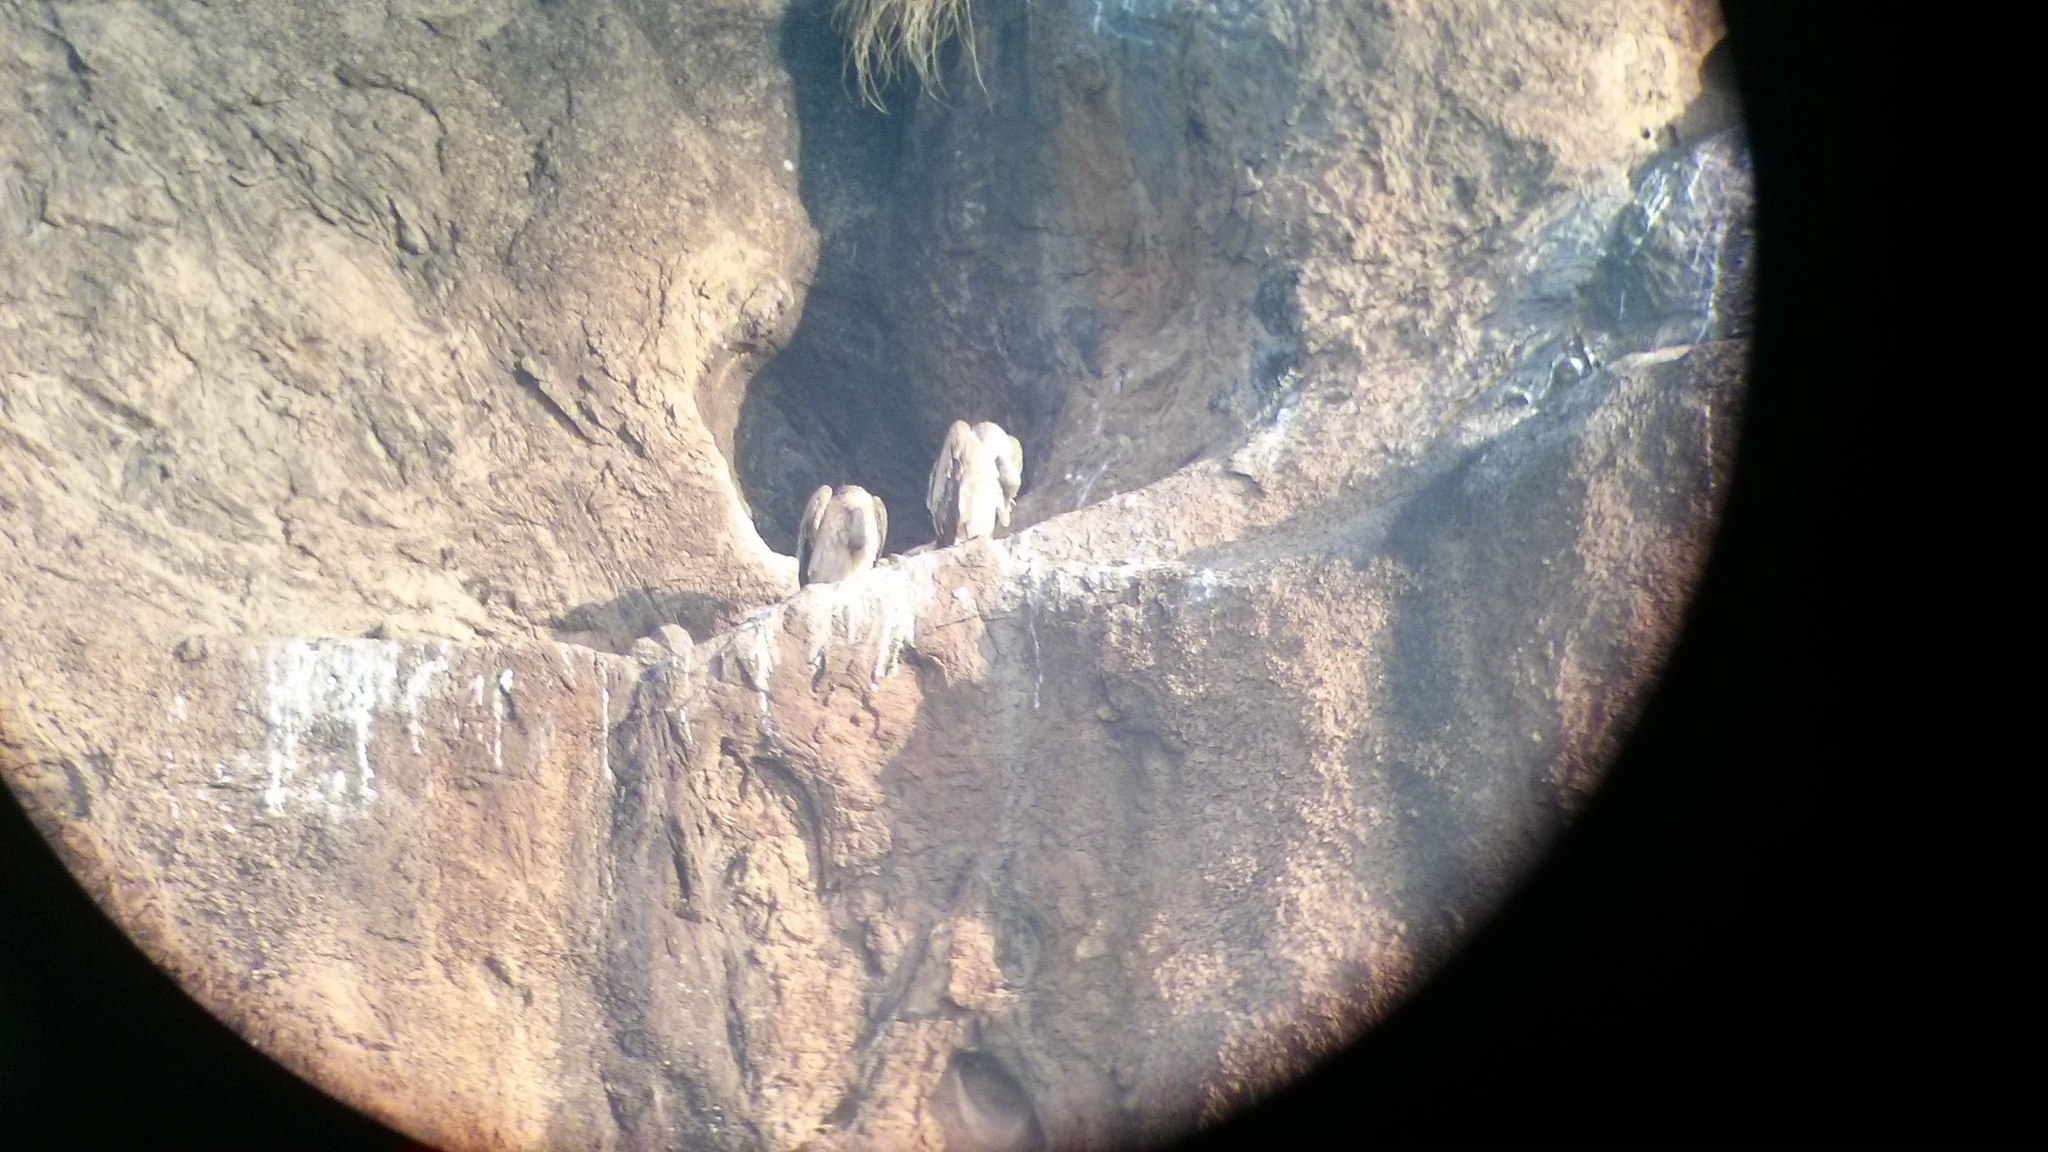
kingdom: Animalia
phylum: Chordata
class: Aves
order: Accipitriformes
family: Accipitridae
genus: Gyps
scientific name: Gyps indicus
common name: Indian vulture
